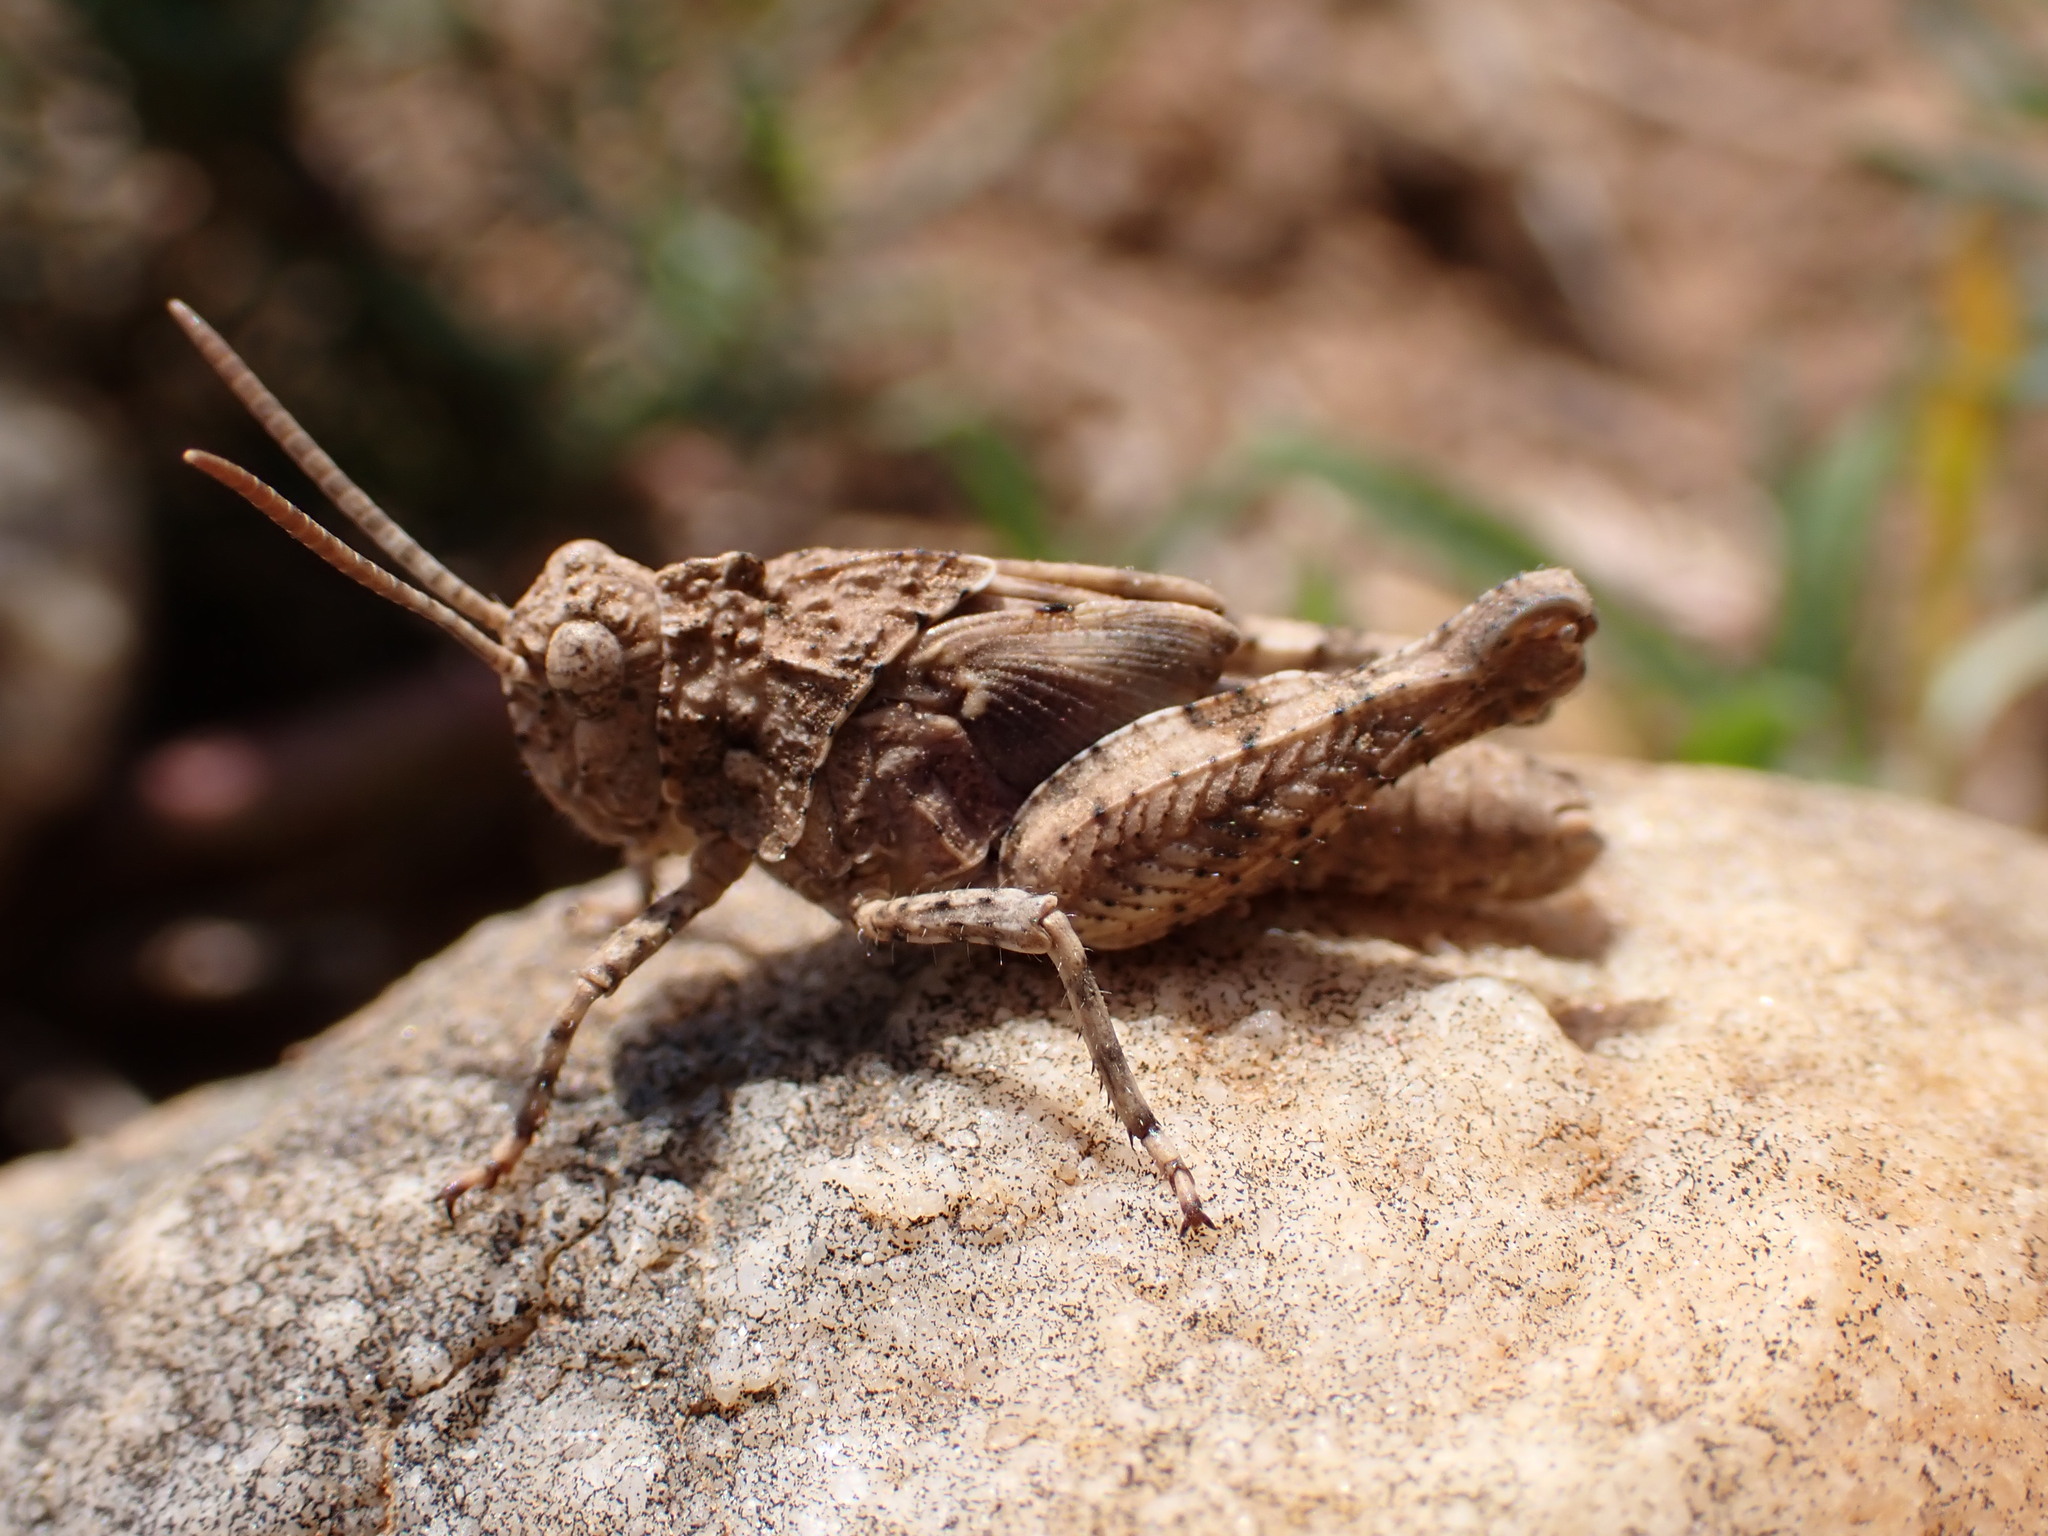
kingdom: Animalia
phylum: Arthropoda
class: Insecta
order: Orthoptera
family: Acrididae
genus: Oedipoda
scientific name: Oedipoda charpentieri
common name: Western band-winged grasshopper
